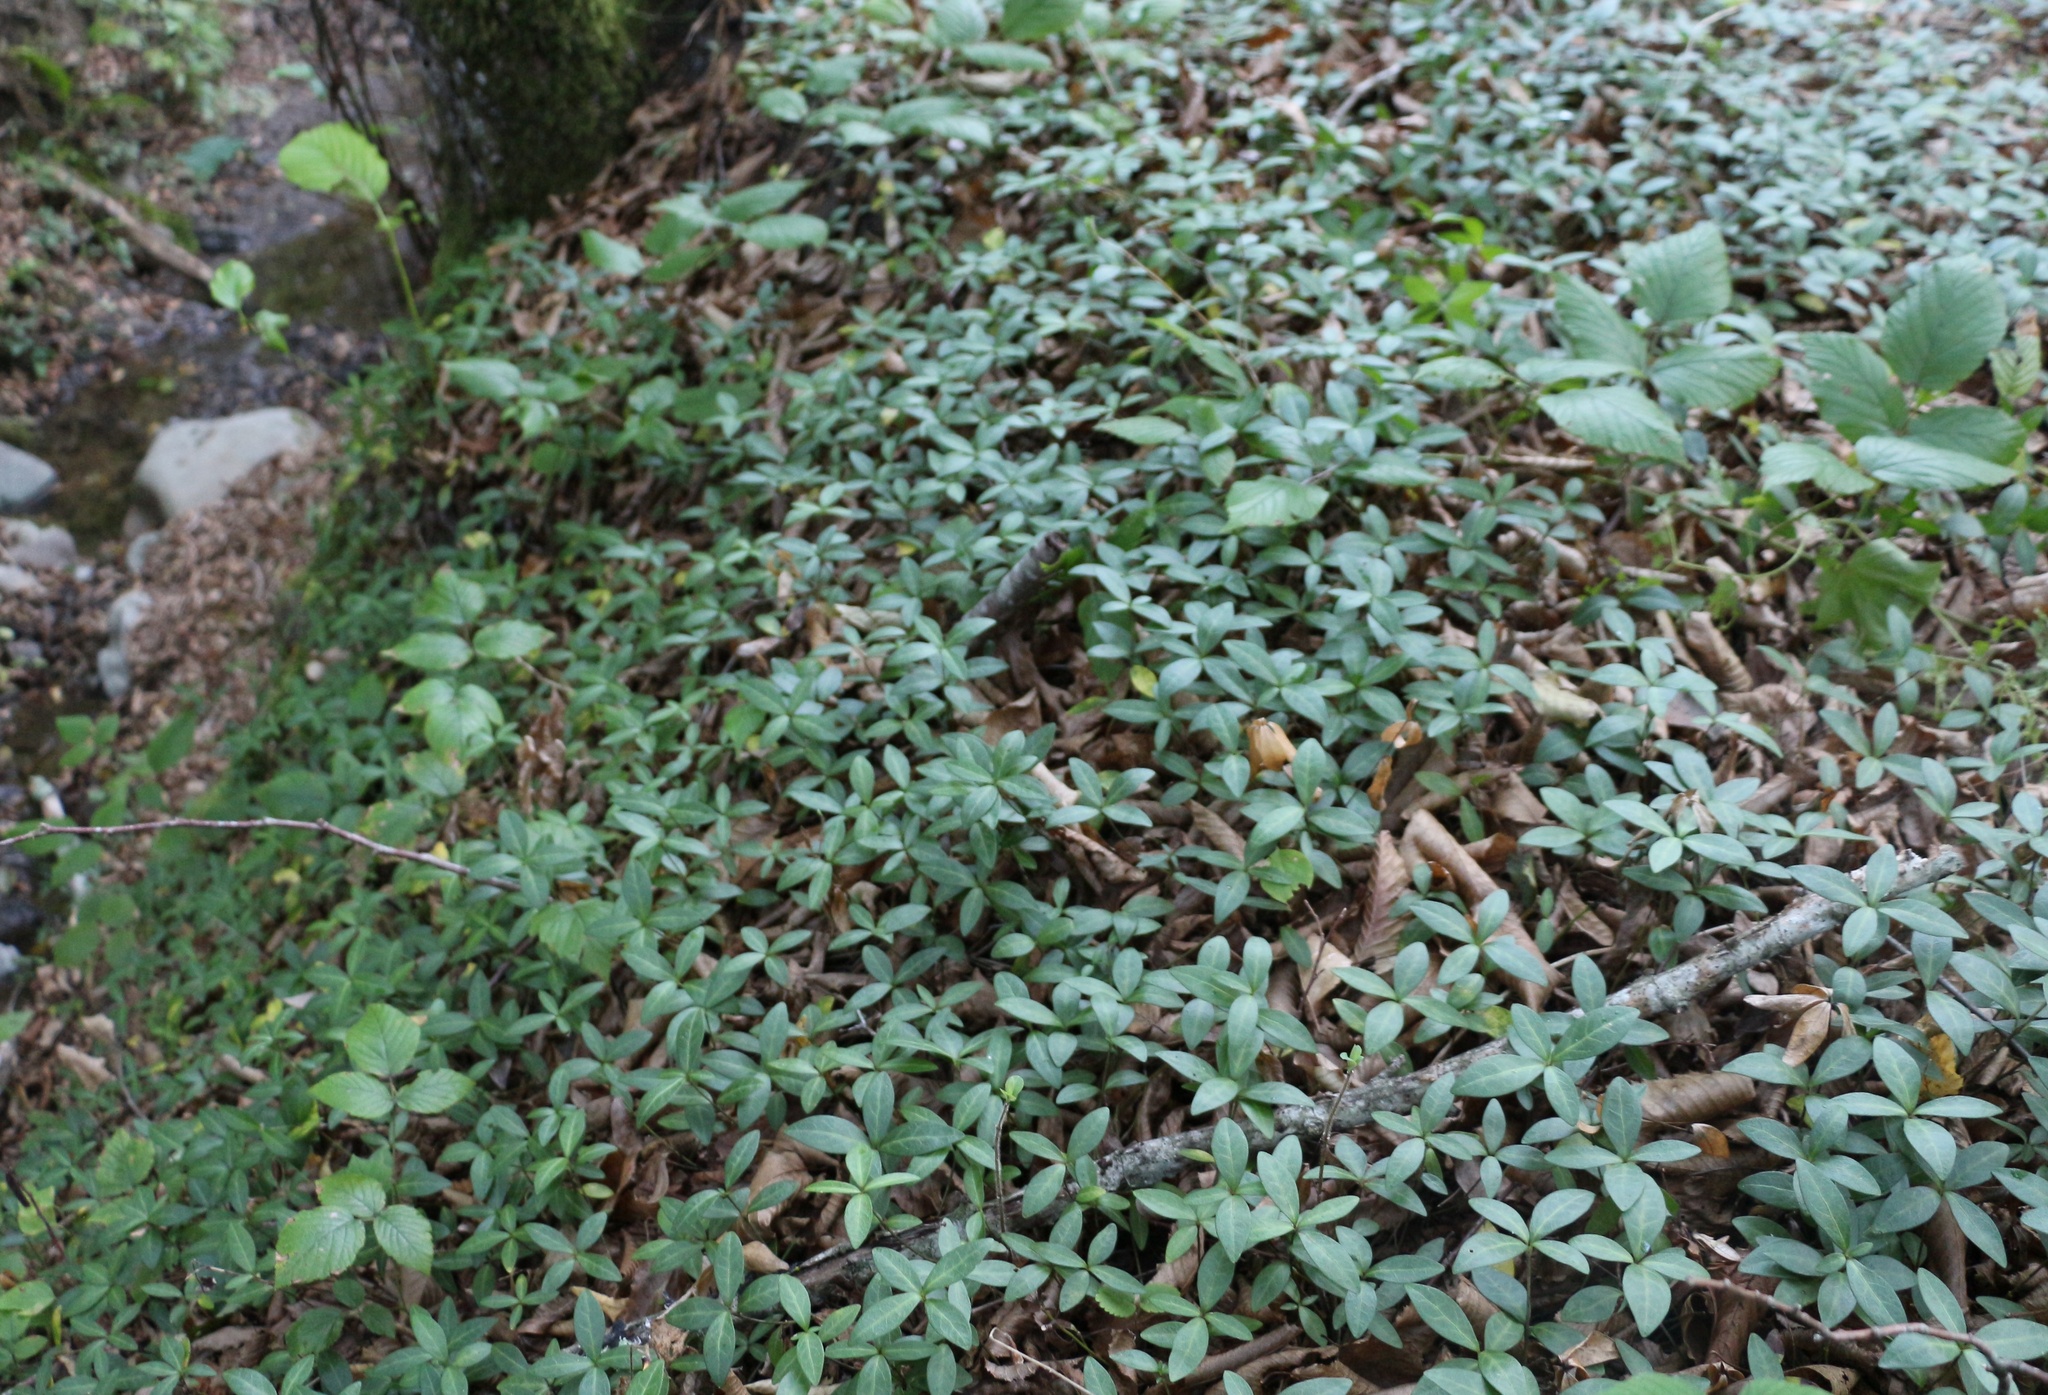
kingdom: Plantae
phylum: Tracheophyta
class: Magnoliopsida
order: Gentianales
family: Apocynaceae
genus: Vinca
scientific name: Vinca minor
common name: Lesser periwinkle
